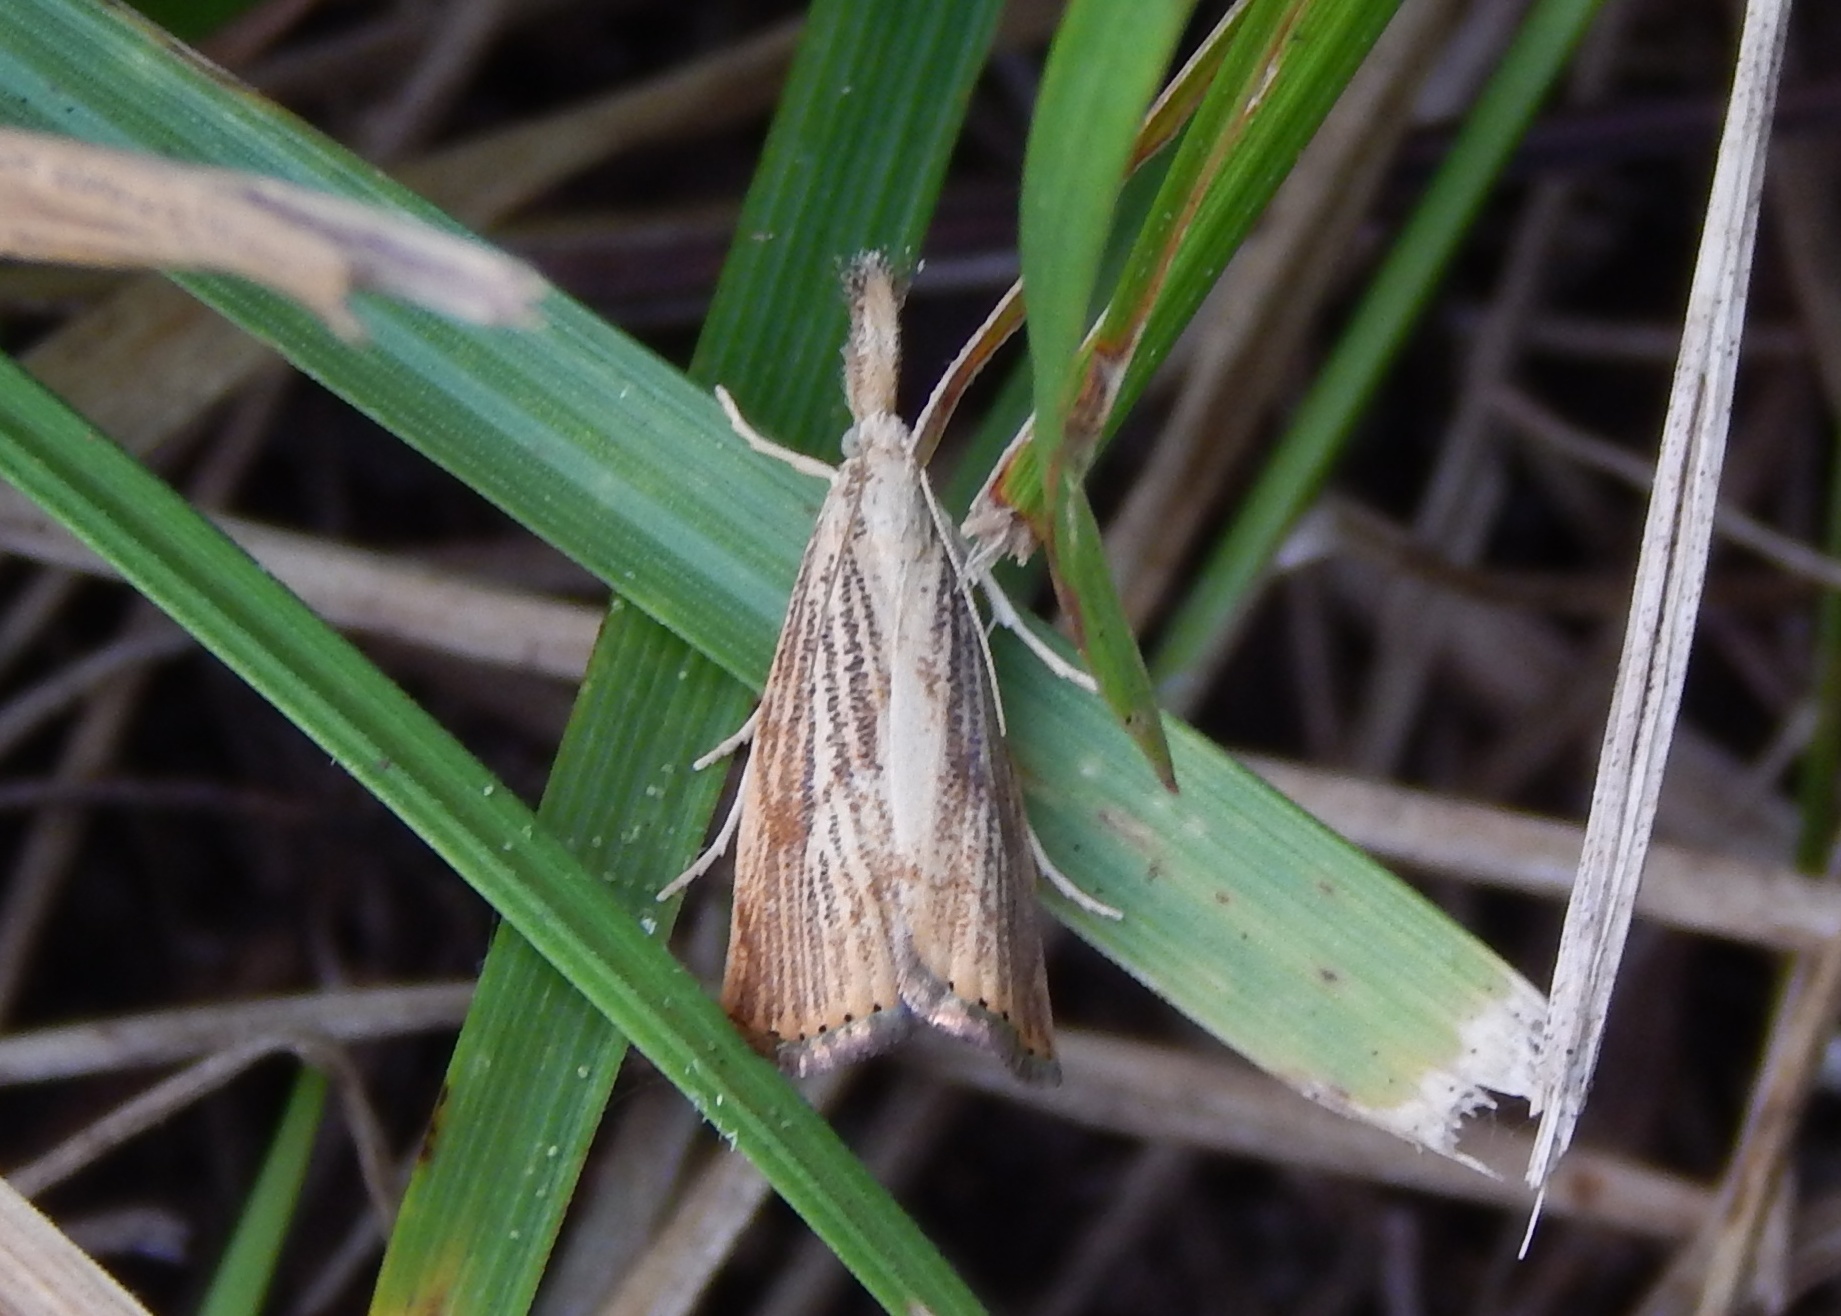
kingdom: Animalia
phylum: Arthropoda
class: Insecta
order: Lepidoptera
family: Crambidae
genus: Agriphila
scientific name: Agriphila ruricolellus
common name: Lesser vagabond sod webworm
